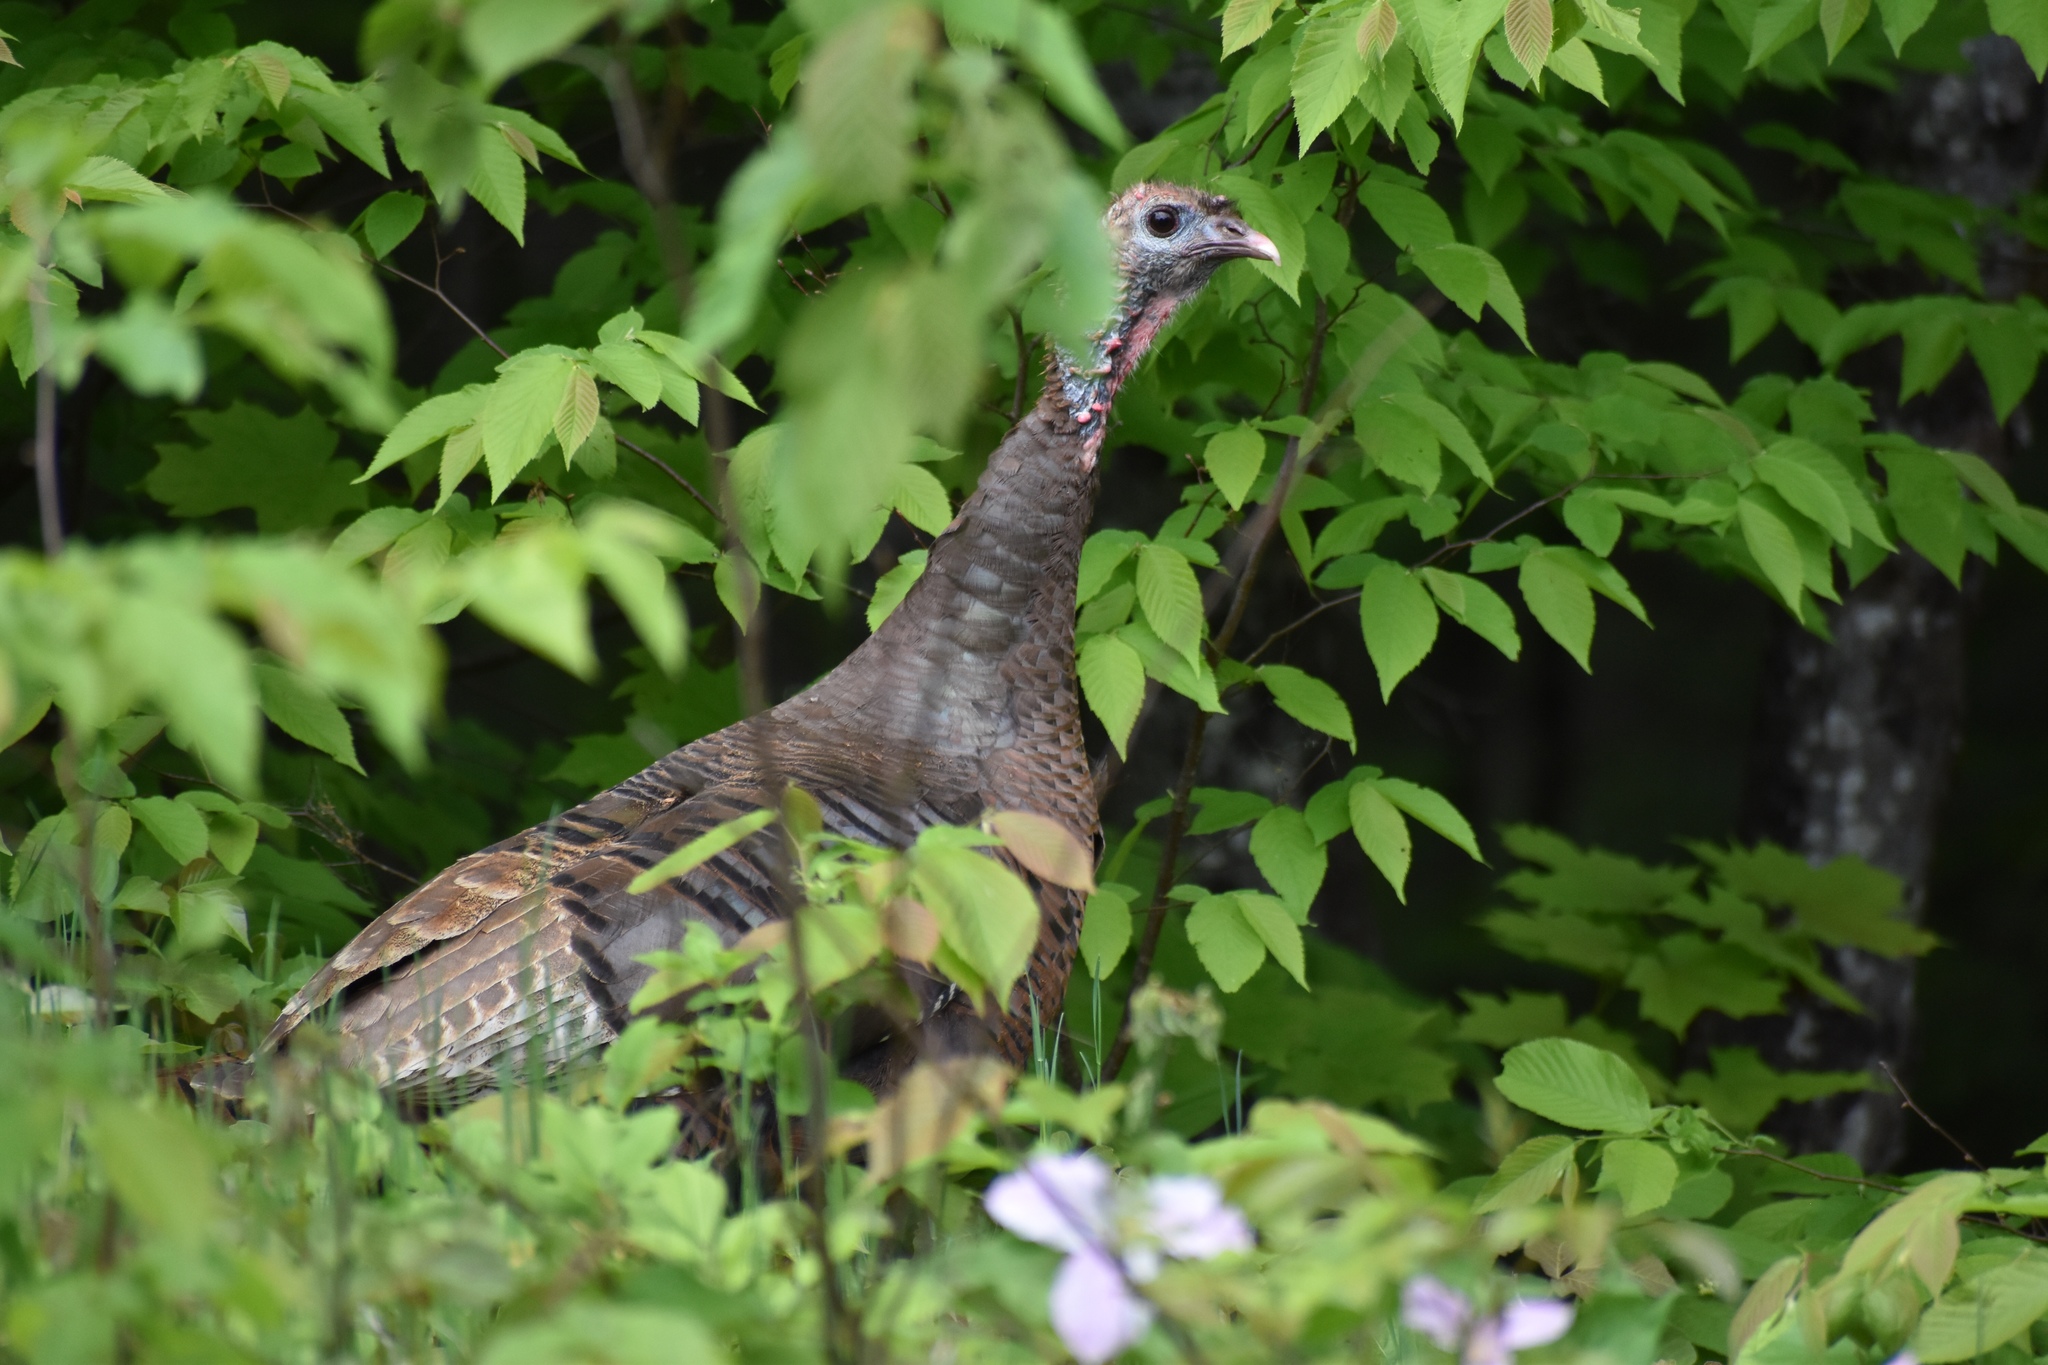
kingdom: Animalia
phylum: Chordata
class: Aves
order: Galliformes
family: Phasianidae
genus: Meleagris
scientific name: Meleagris gallopavo
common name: Wild turkey
